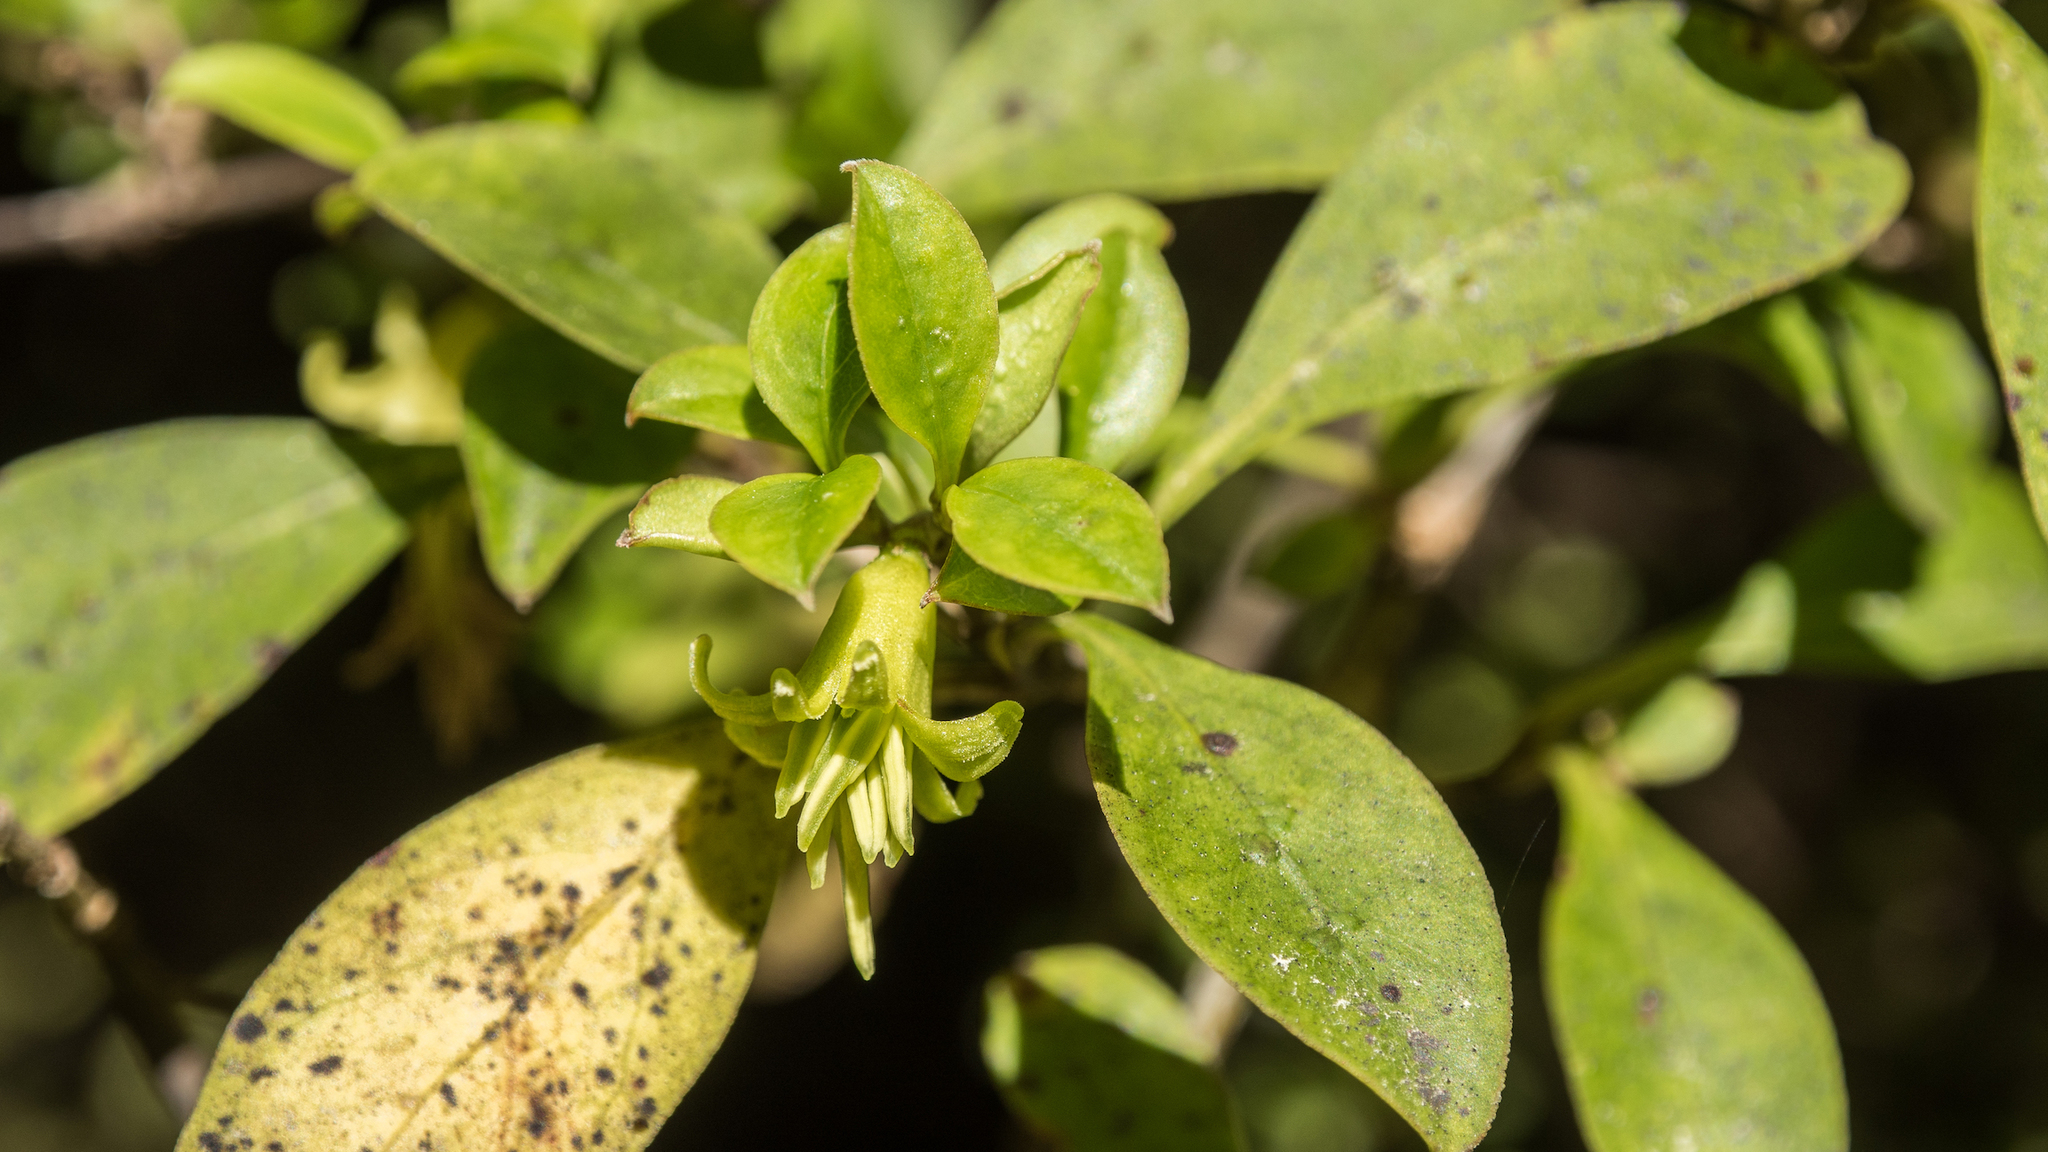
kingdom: Plantae
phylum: Tracheophyta
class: Magnoliopsida
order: Gentianales
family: Rubiaceae
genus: Coprosma
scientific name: Coprosma foetidissima
